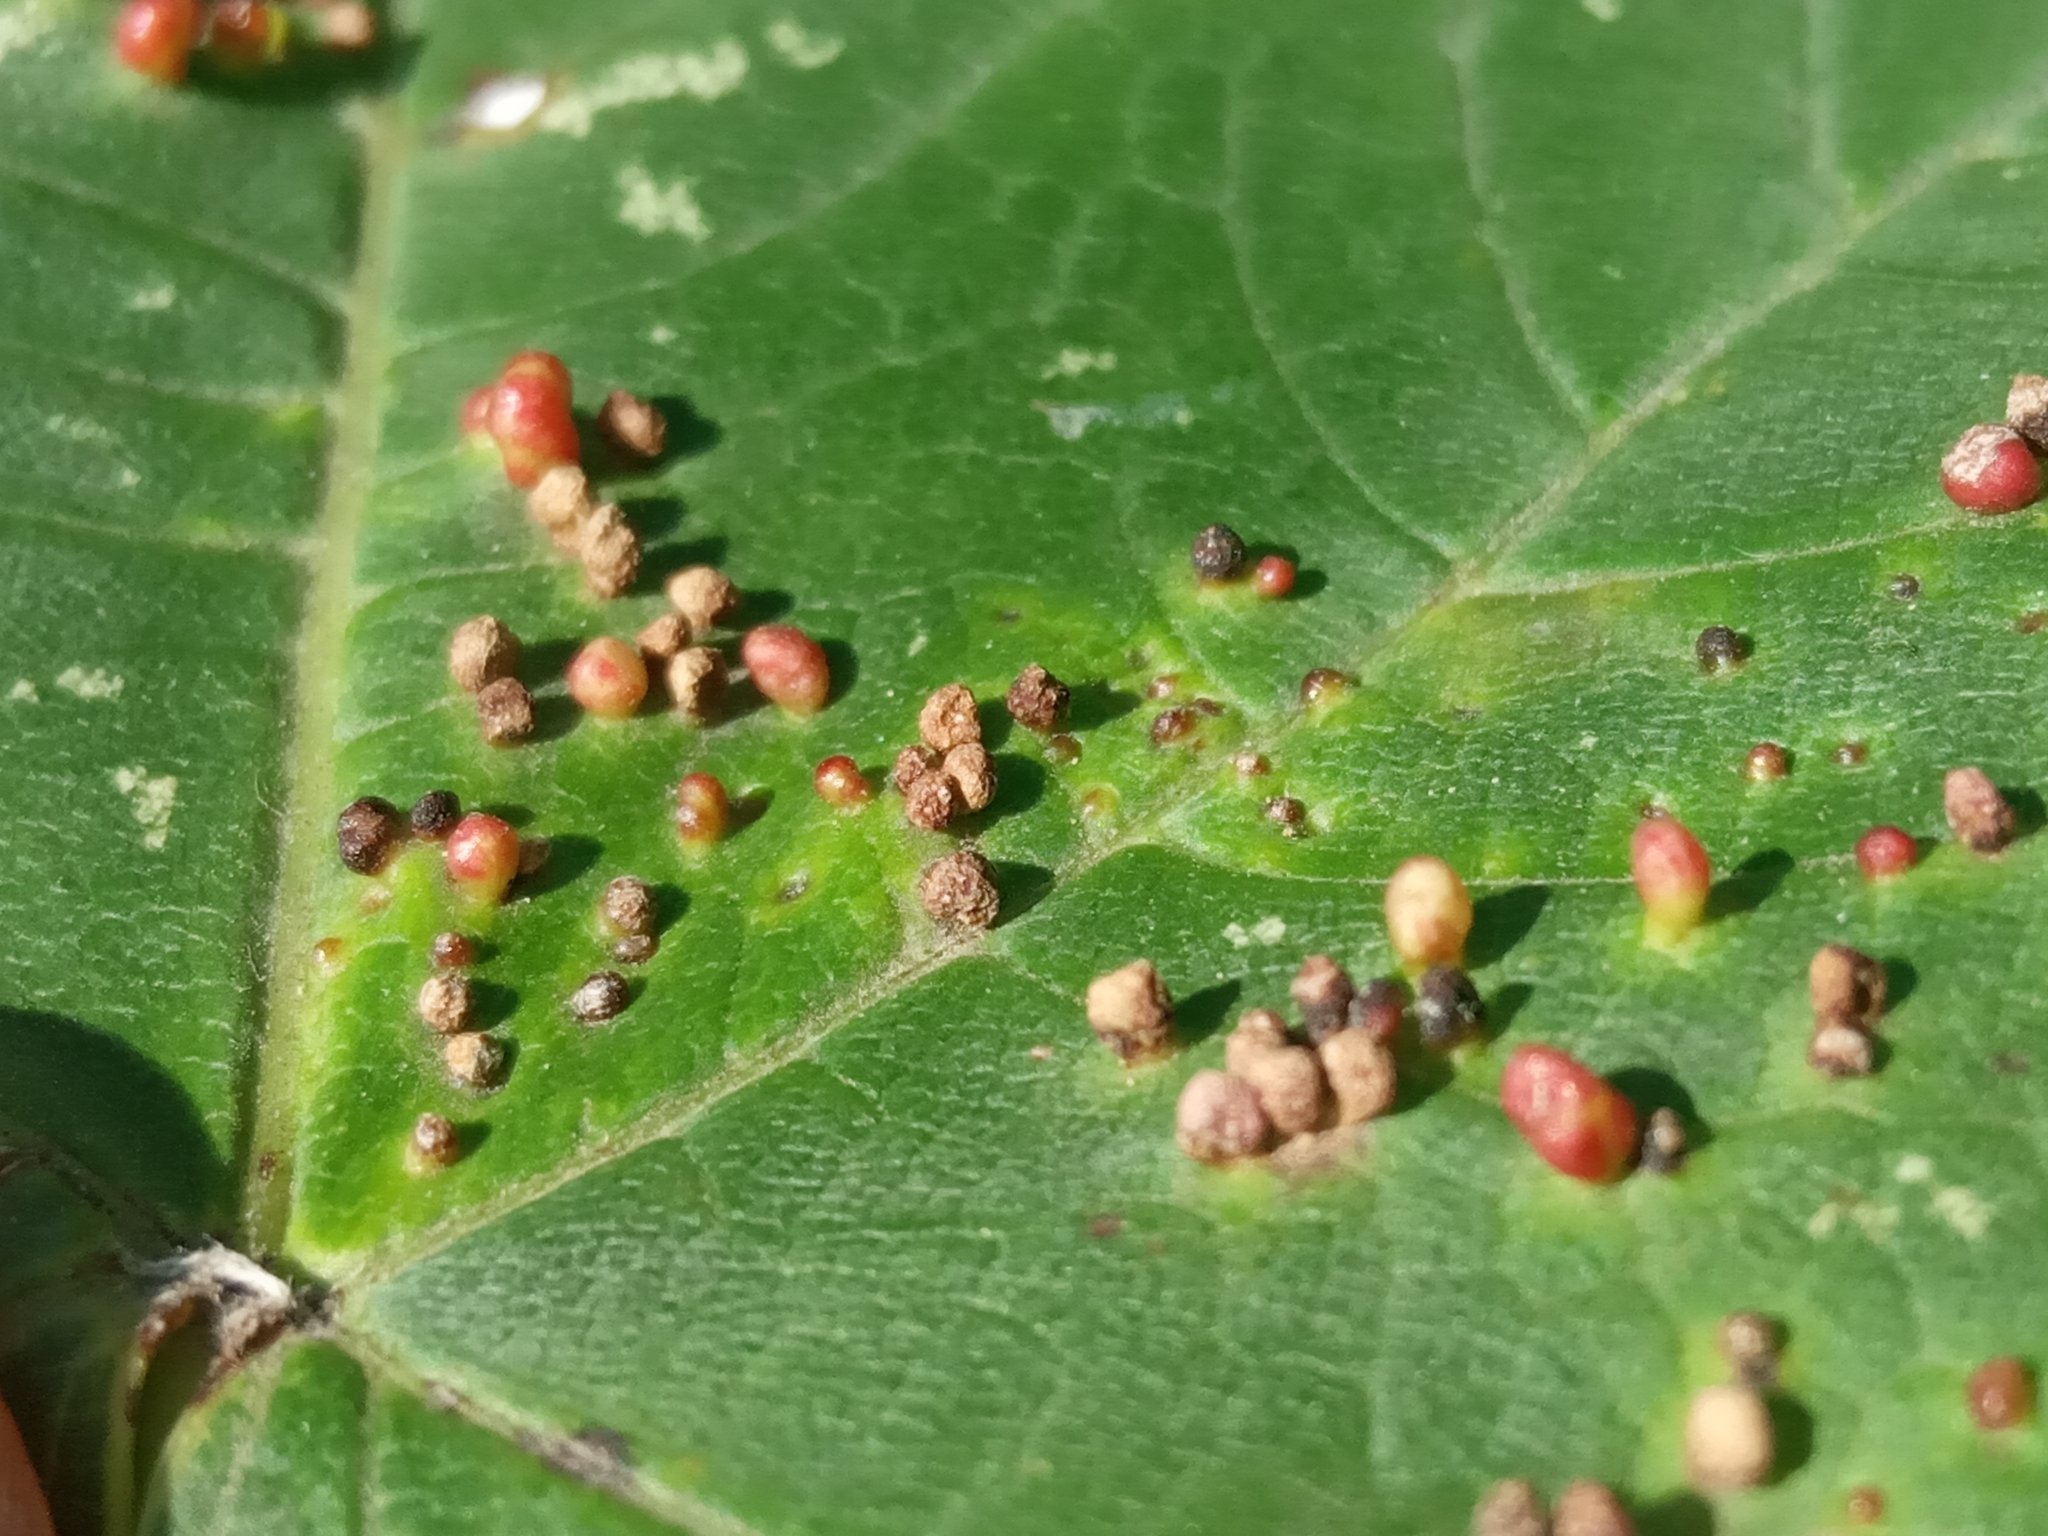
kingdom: Animalia
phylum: Arthropoda
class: Arachnida
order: Trombidiformes
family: Eriophyidae
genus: Aceria
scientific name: Aceria cephaloneus
